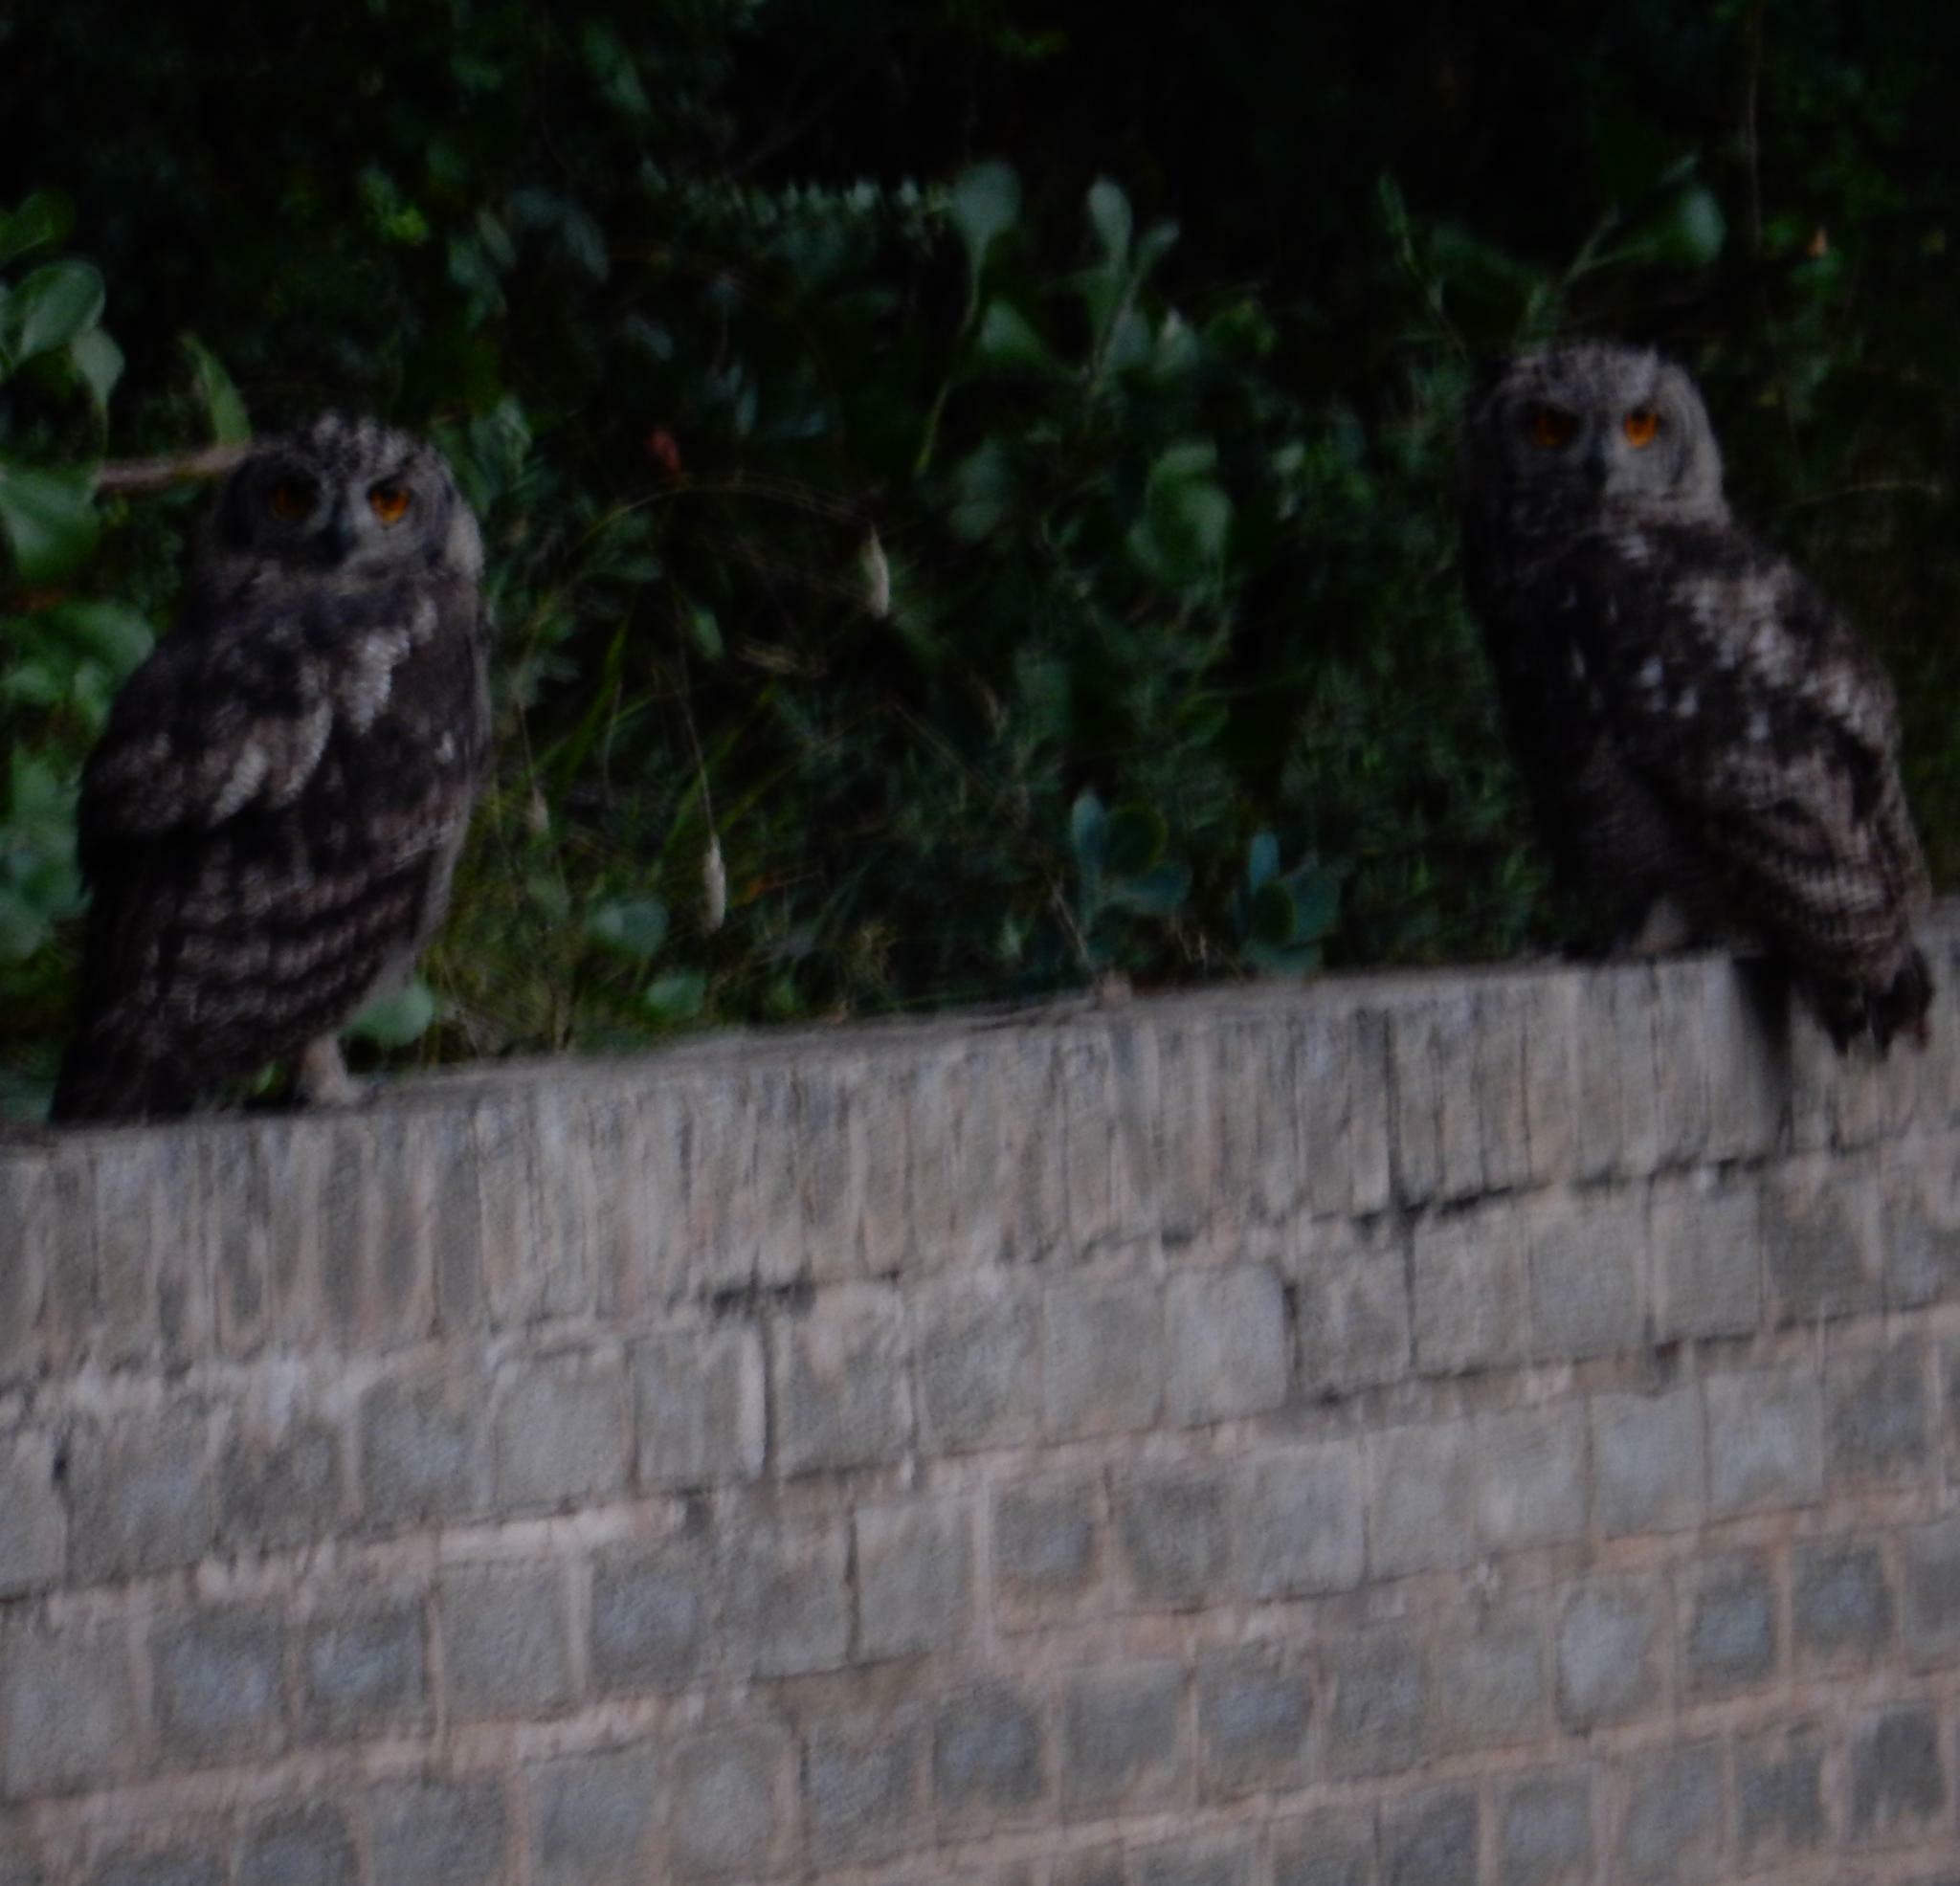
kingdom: Animalia
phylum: Chordata
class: Aves
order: Strigiformes
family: Strigidae
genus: Bubo
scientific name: Bubo africanus
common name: Spotted eagle-owl
